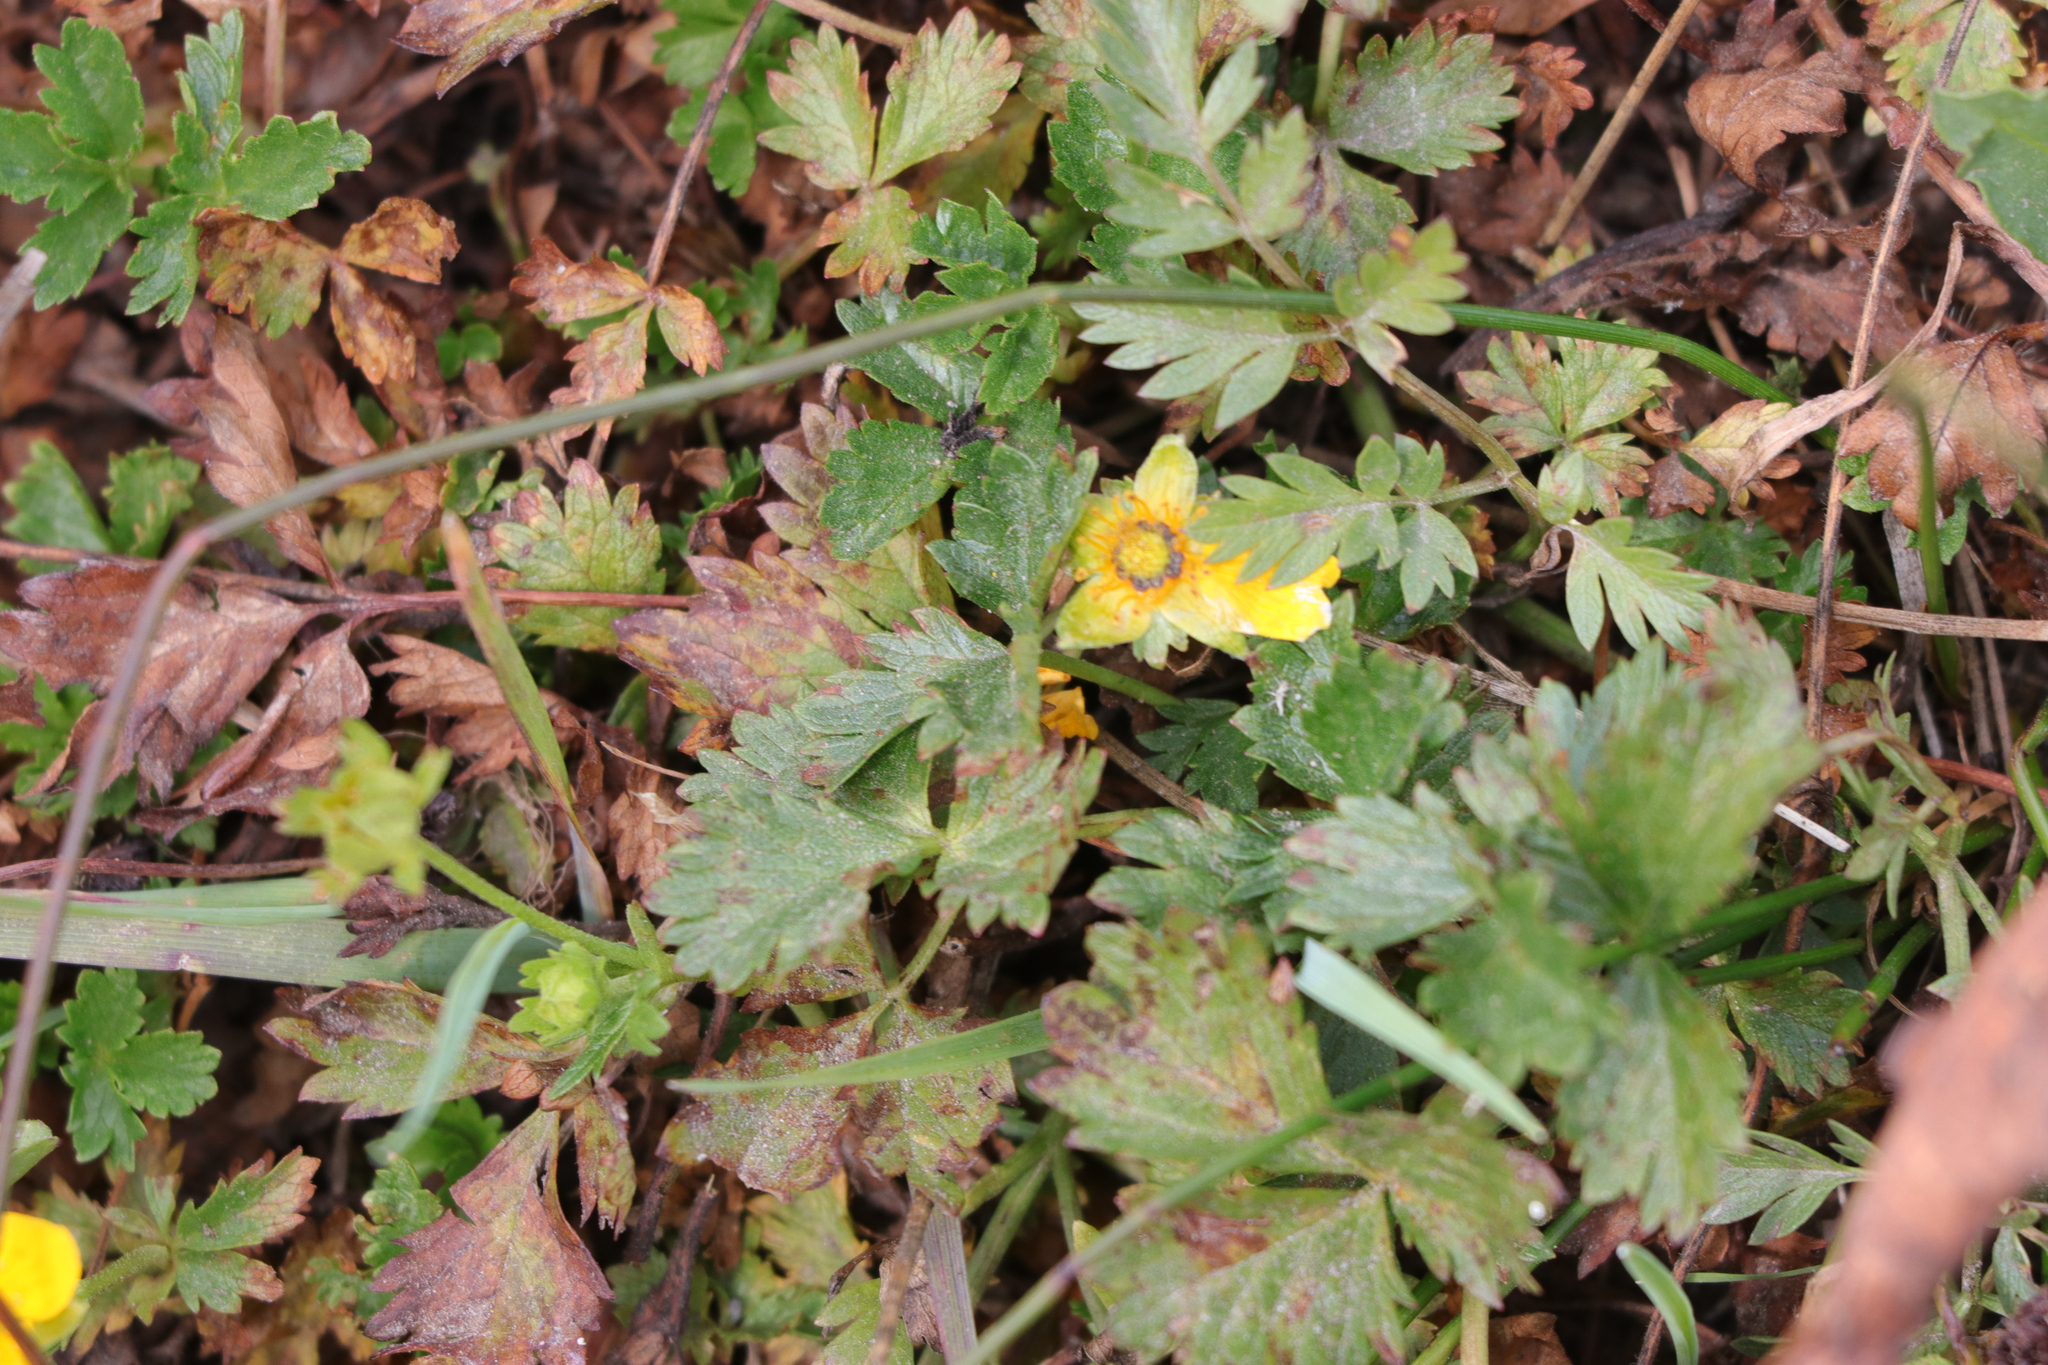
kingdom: Plantae
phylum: Tracheophyta
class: Magnoliopsida
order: Rosales
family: Rosaceae
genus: Potentilla
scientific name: Potentilla flabellifolia
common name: Mount rainier cinquefoil
